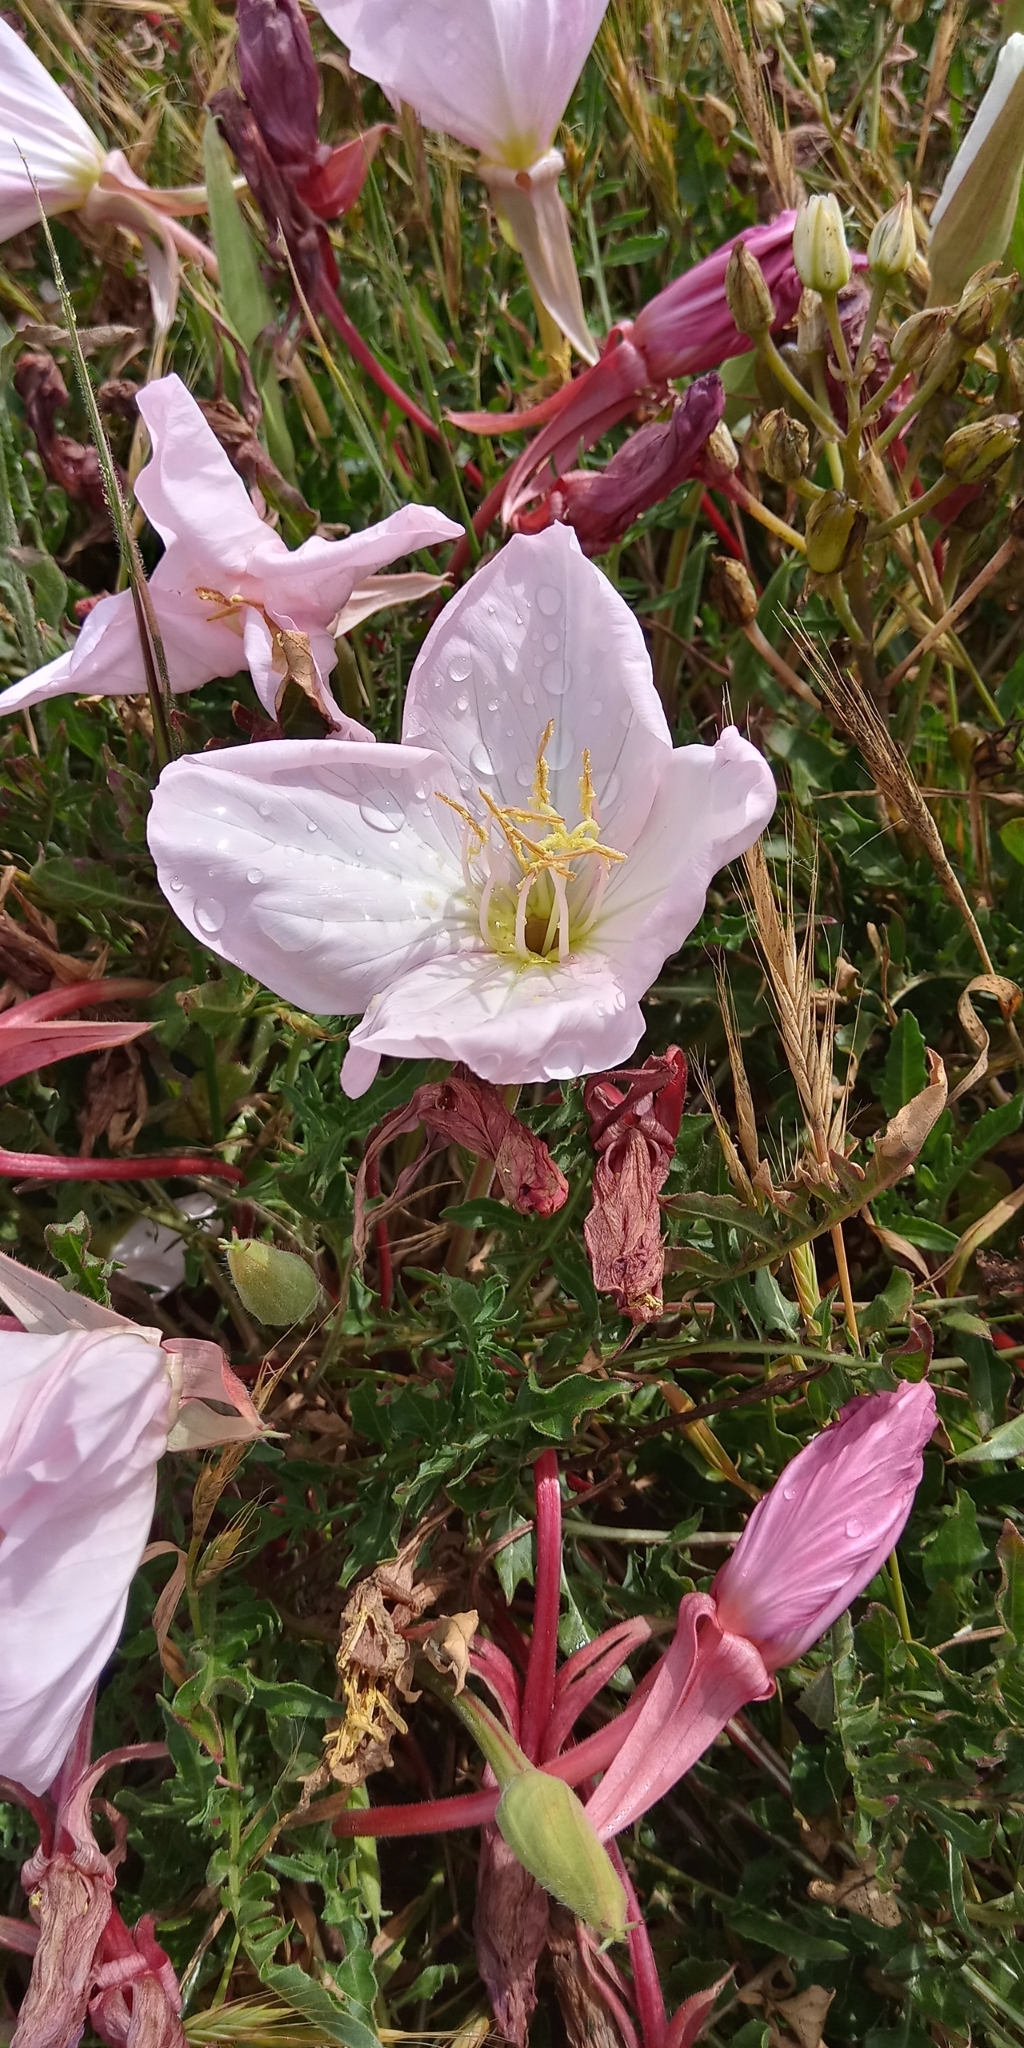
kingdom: Plantae
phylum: Tracheophyta
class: Magnoliopsida
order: Myrtales
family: Onagraceae
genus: Oenothera
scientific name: Oenothera acaulis
